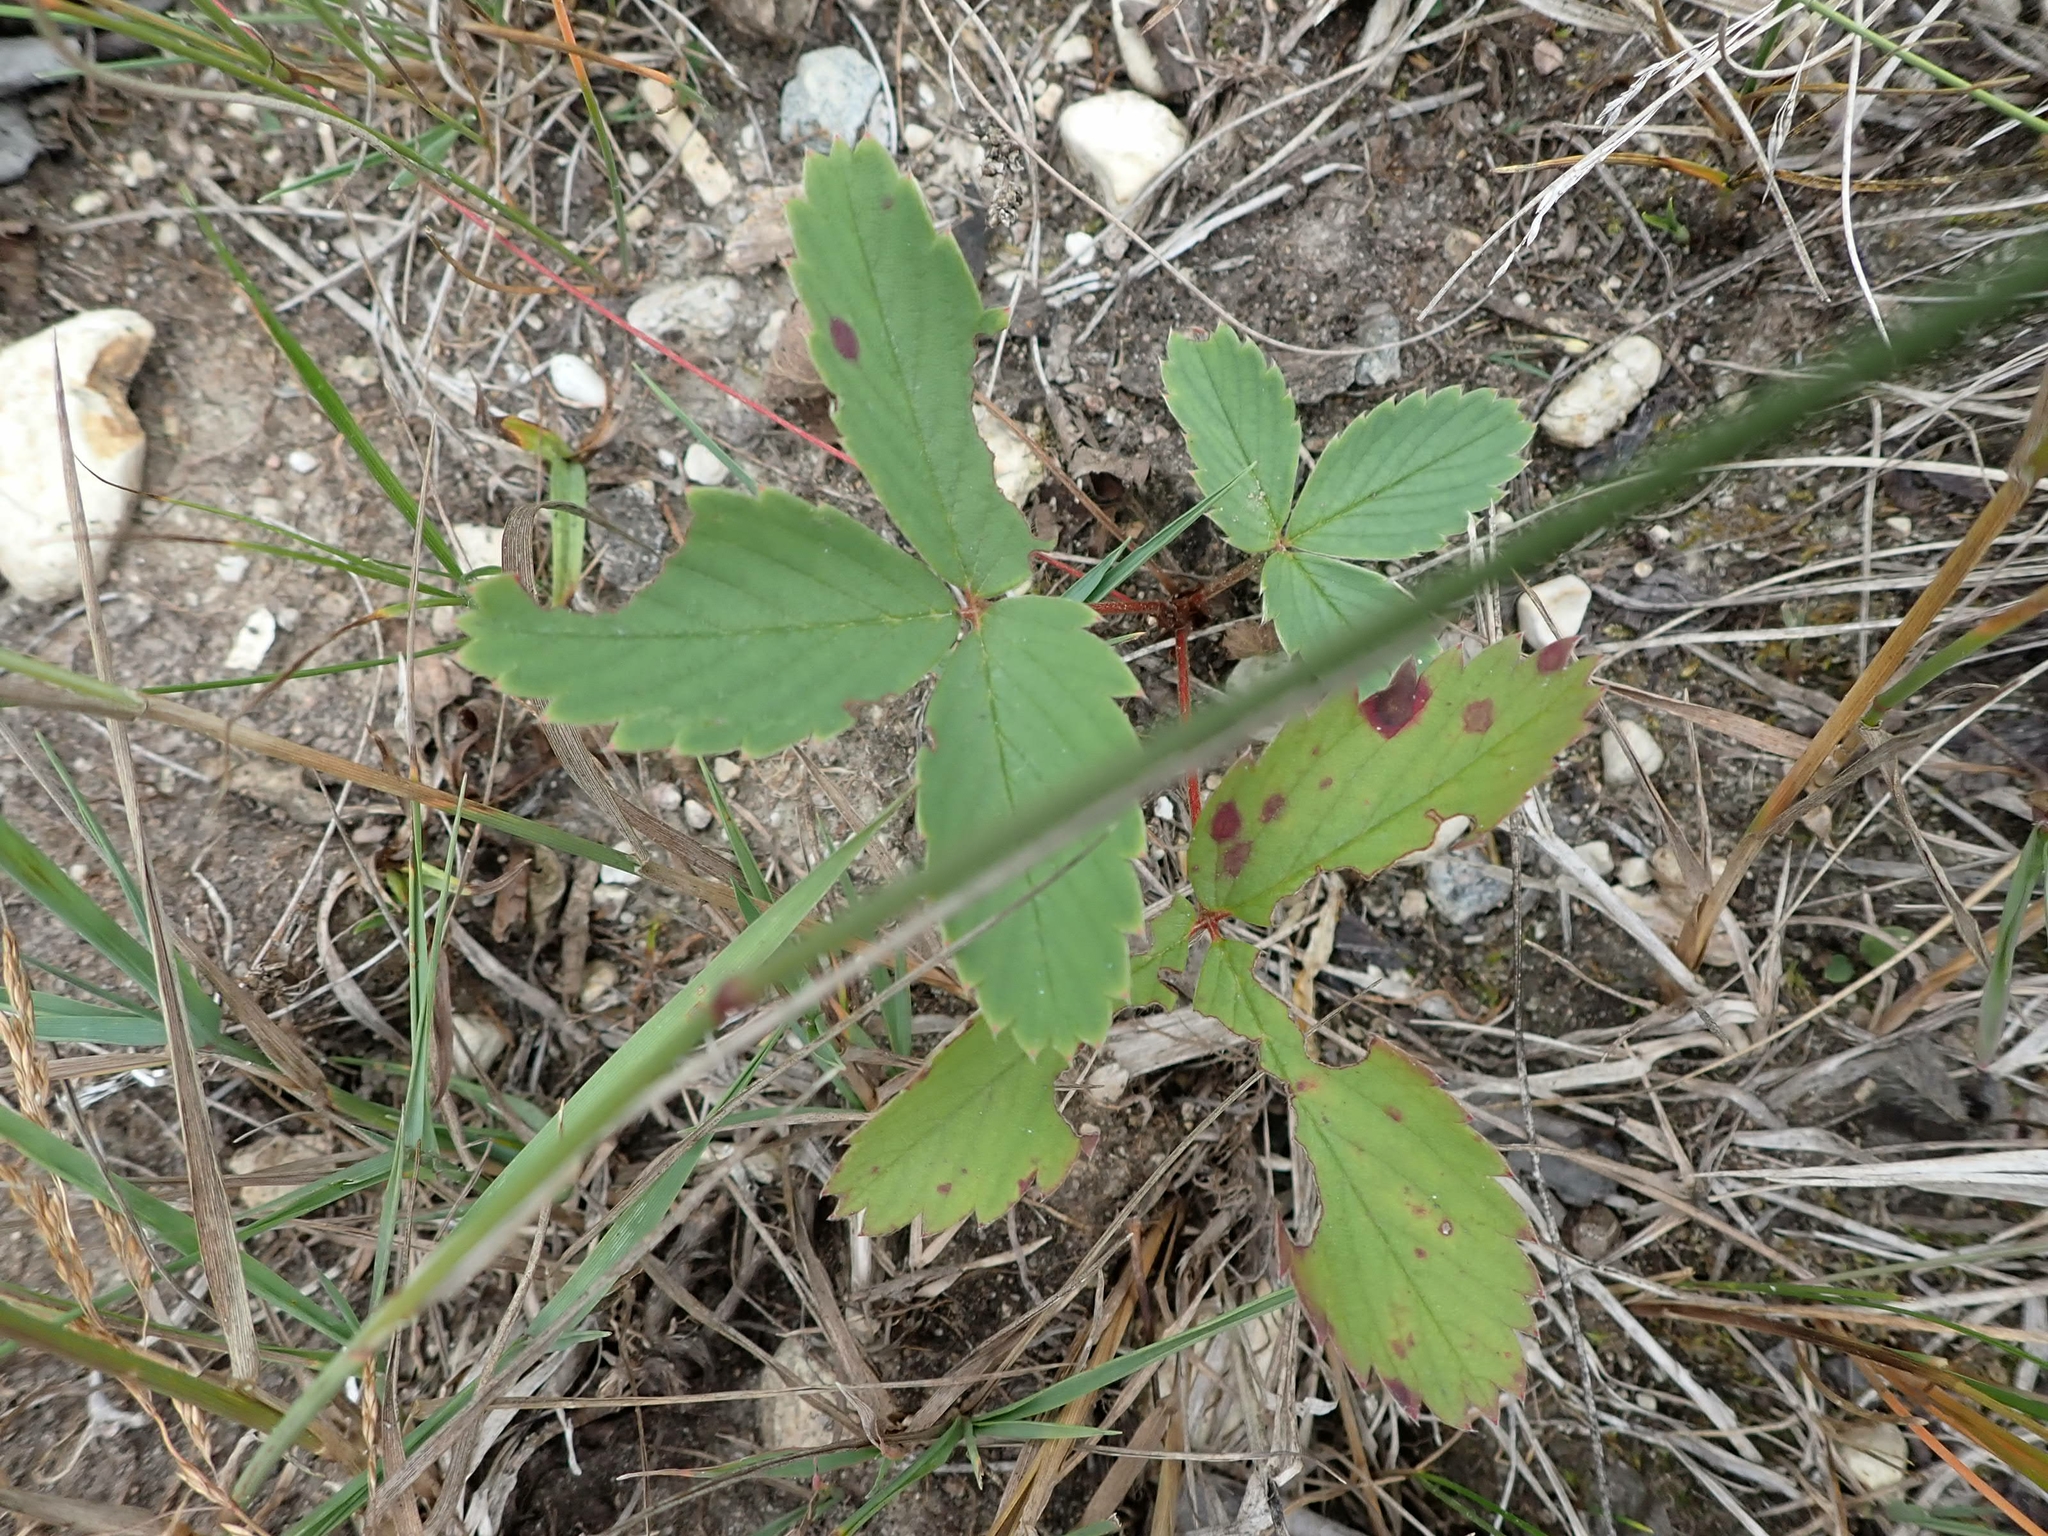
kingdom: Plantae
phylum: Tracheophyta
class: Magnoliopsida
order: Rosales
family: Rosaceae
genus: Fragaria
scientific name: Fragaria virginiana
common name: Thickleaved wild strawberry
